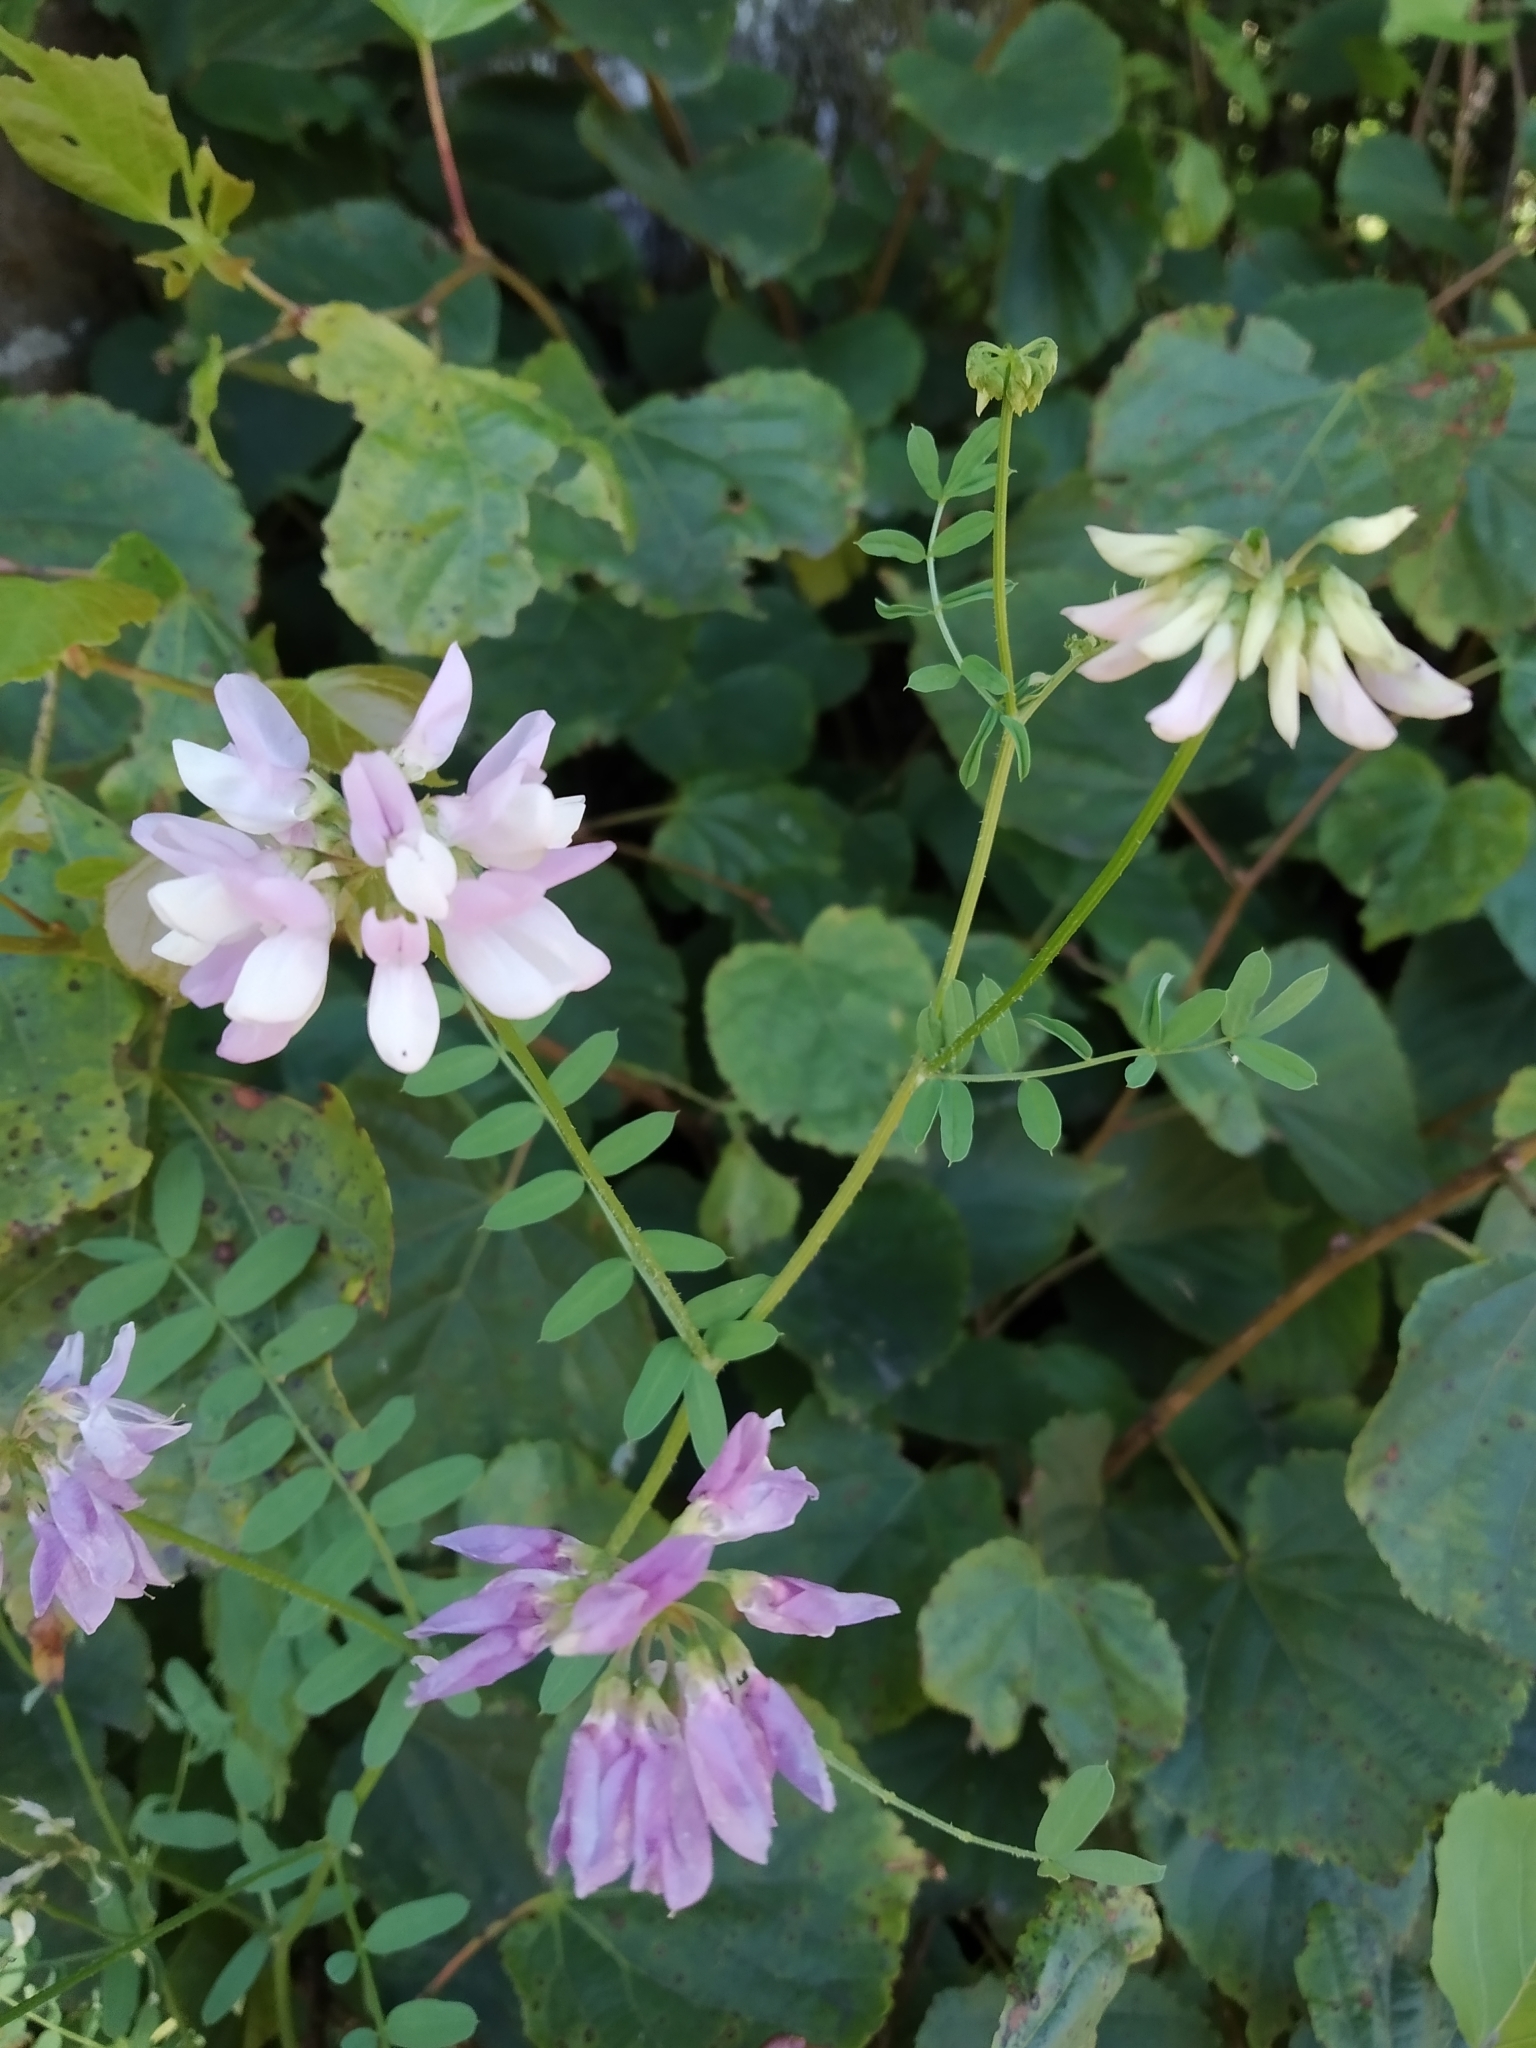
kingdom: Plantae
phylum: Tracheophyta
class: Magnoliopsida
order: Fabales
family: Fabaceae
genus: Coronilla
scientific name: Coronilla varia
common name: Crownvetch
